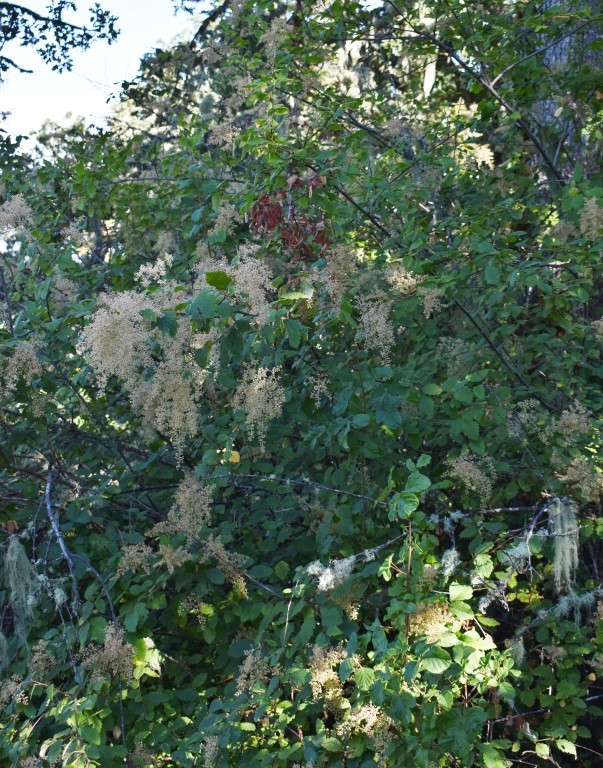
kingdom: Plantae
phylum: Tracheophyta
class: Magnoliopsida
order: Rosales
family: Rosaceae
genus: Holodiscus
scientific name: Holodiscus discolor
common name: Oceanspray
